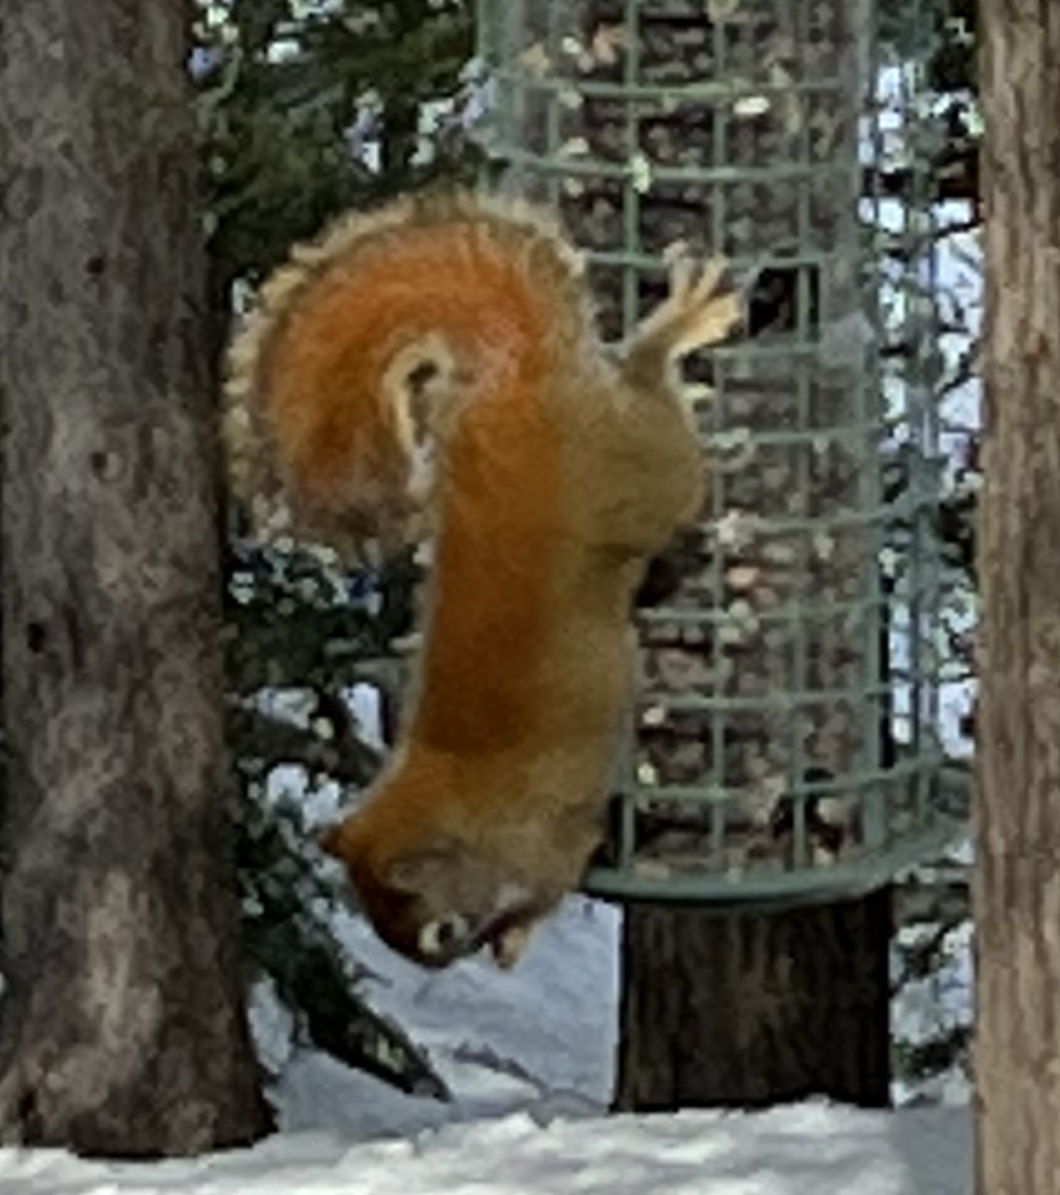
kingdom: Animalia
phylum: Chordata
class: Mammalia
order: Rodentia
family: Sciuridae
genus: Tamiasciurus
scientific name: Tamiasciurus hudsonicus
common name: Red squirrel
